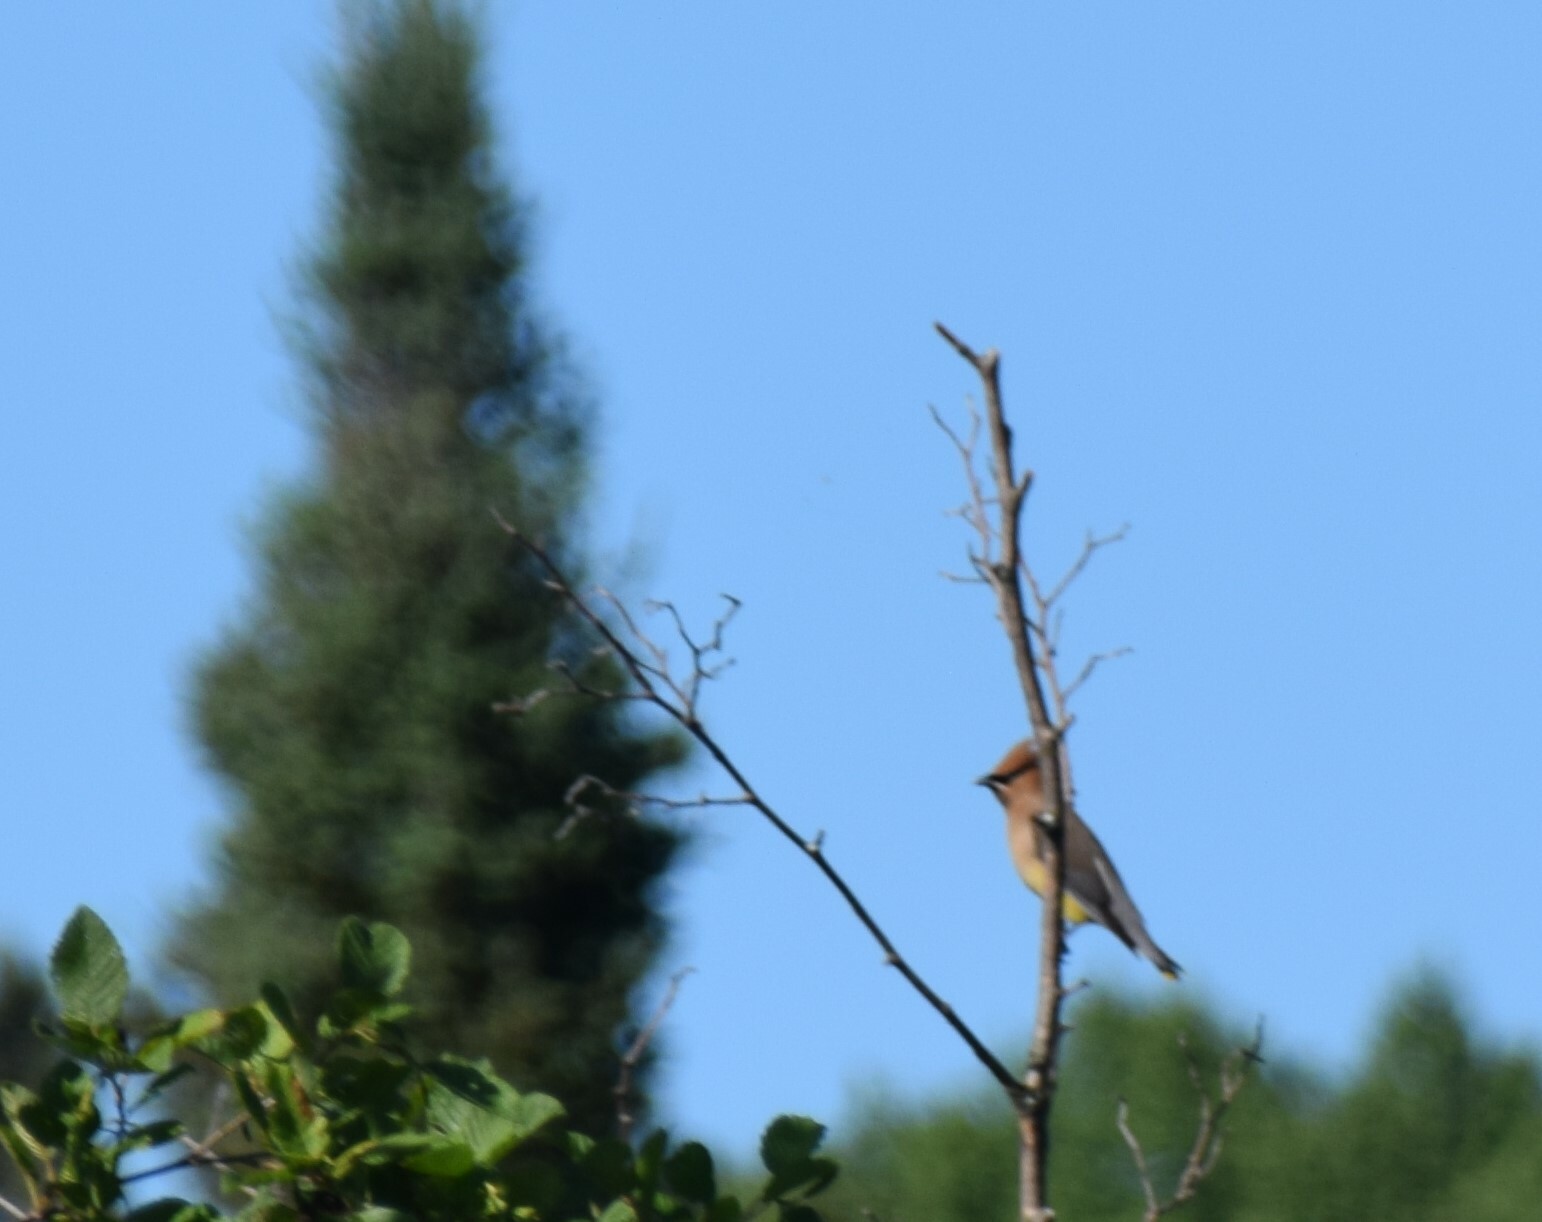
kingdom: Animalia
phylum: Chordata
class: Aves
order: Passeriformes
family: Bombycillidae
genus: Bombycilla
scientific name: Bombycilla cedrorum
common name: Cedar waxwing
